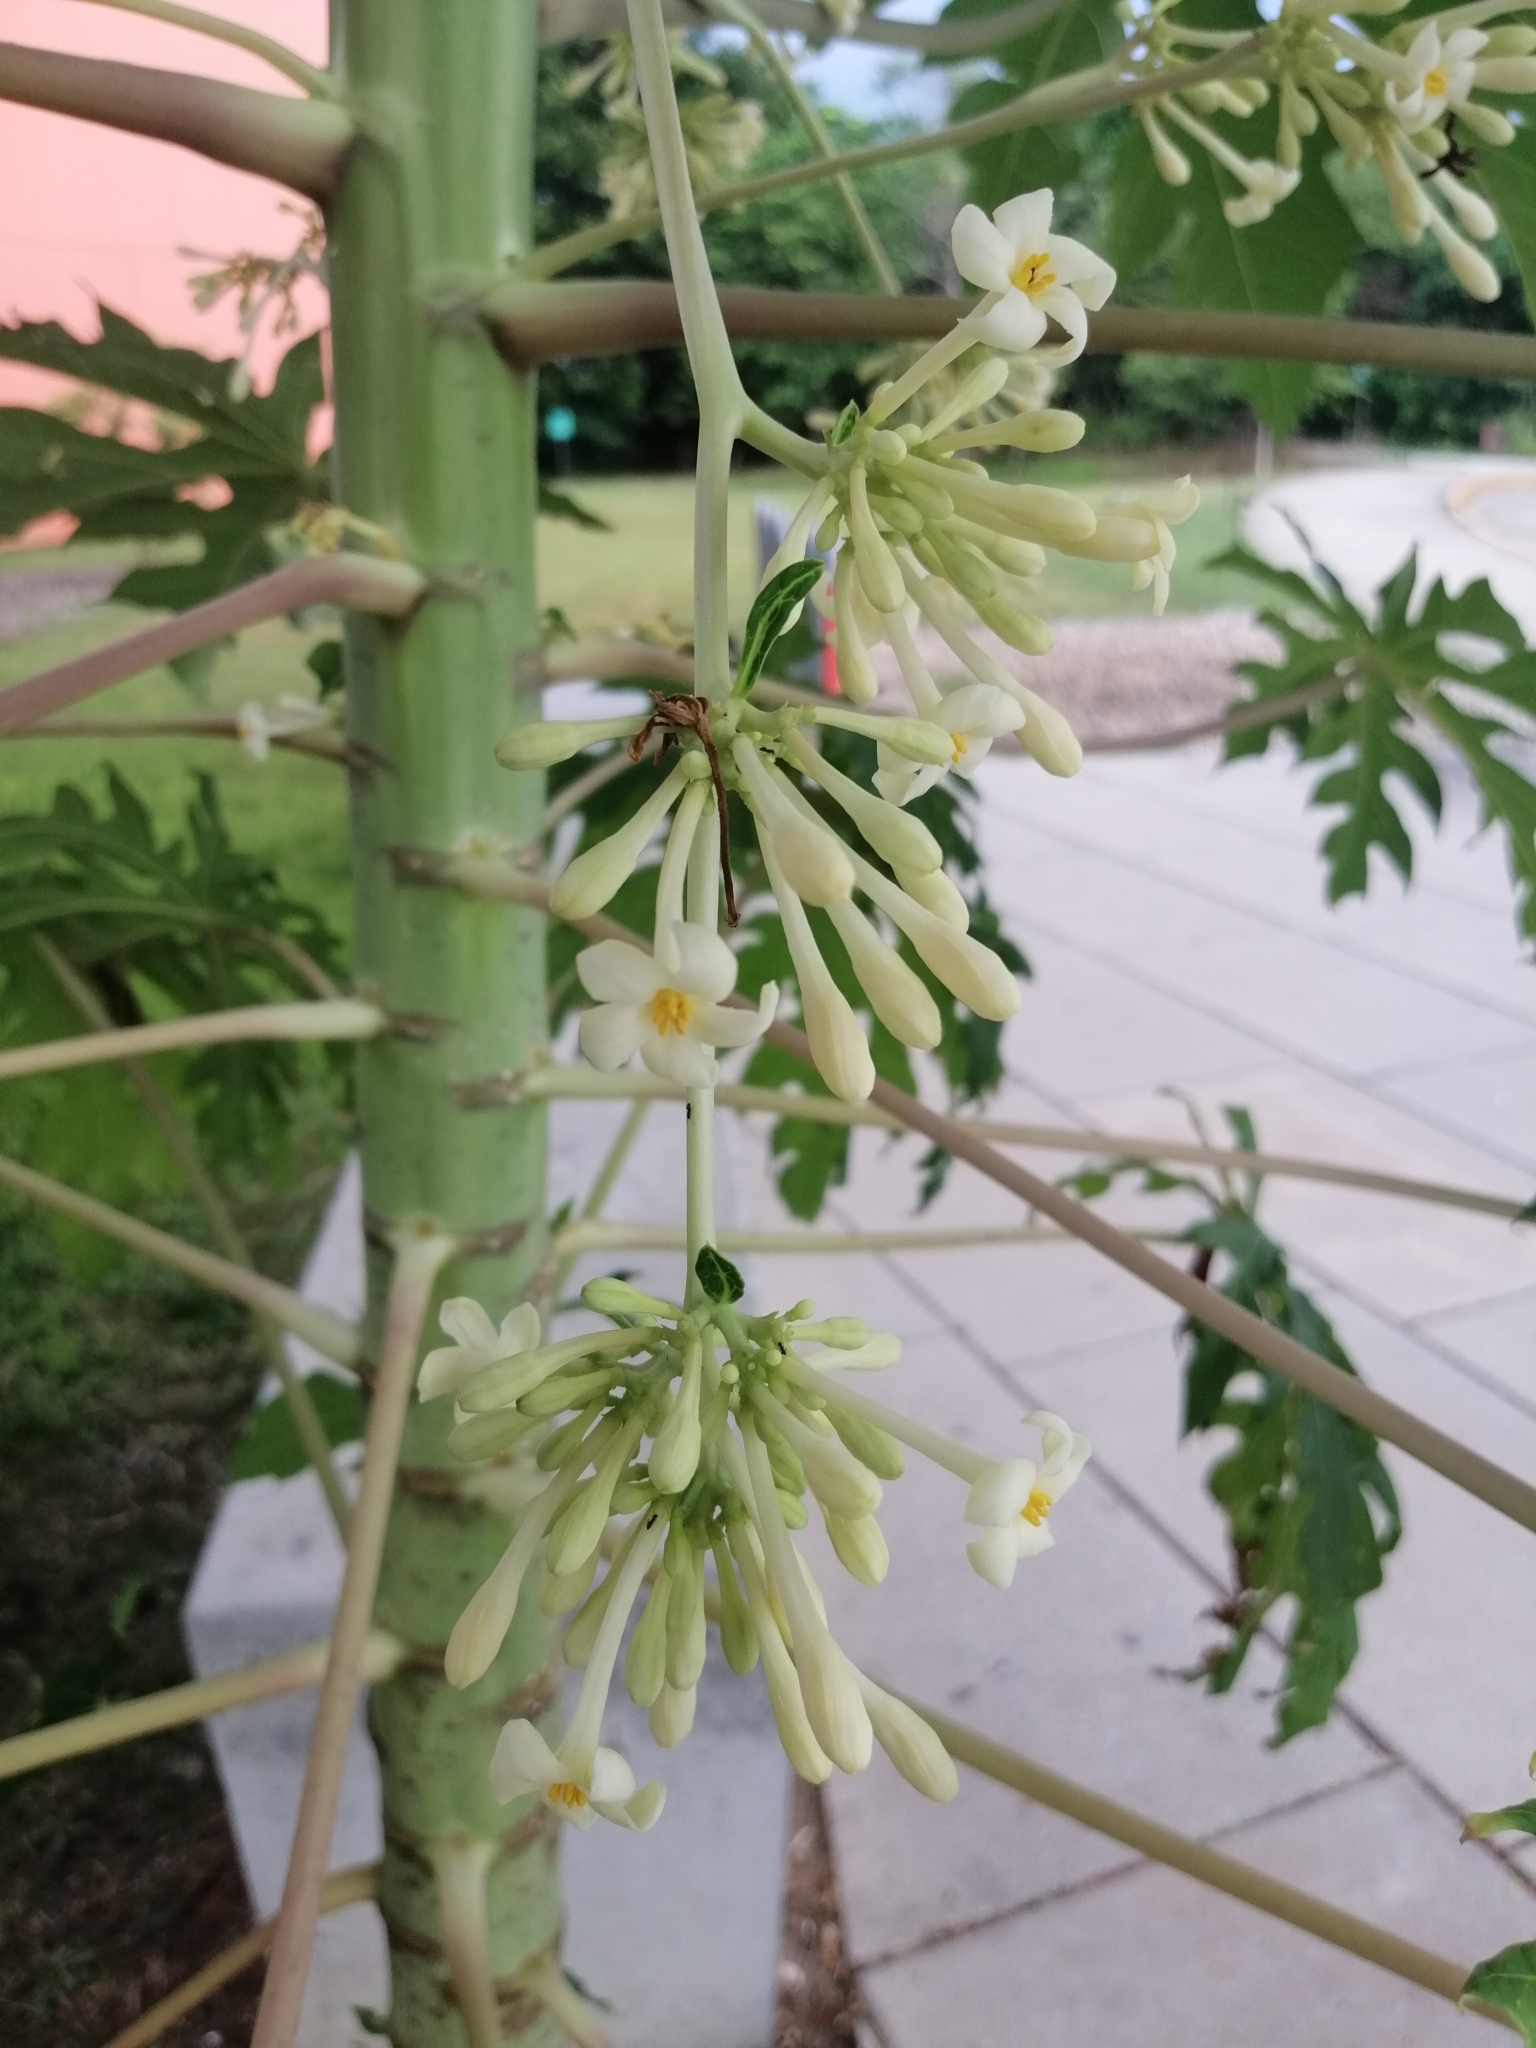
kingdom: Plantae
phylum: Tracheophyta
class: Magnoliopsida
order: Brassicales
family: Caricaceae
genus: Carica
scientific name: Carica papaya
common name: Papaya
